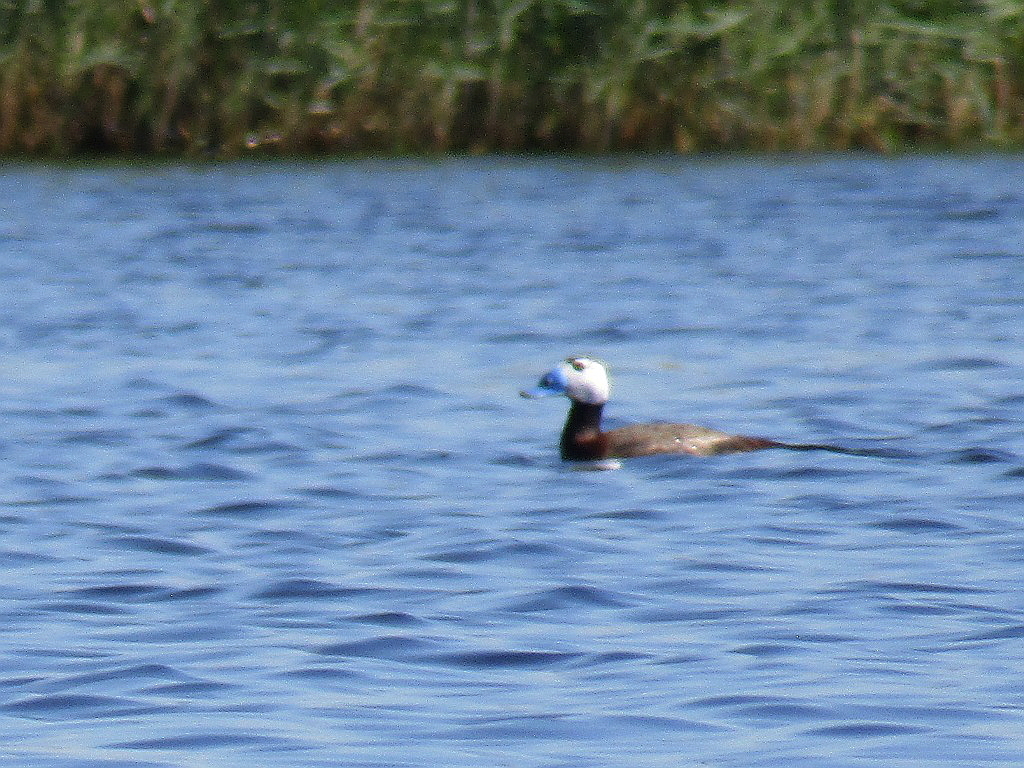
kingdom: Animalia
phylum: Chordata
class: Aves
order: Anseriformes
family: Anatidae
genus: Oxyura
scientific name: Oxyura leucocephala
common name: White-headed duck
